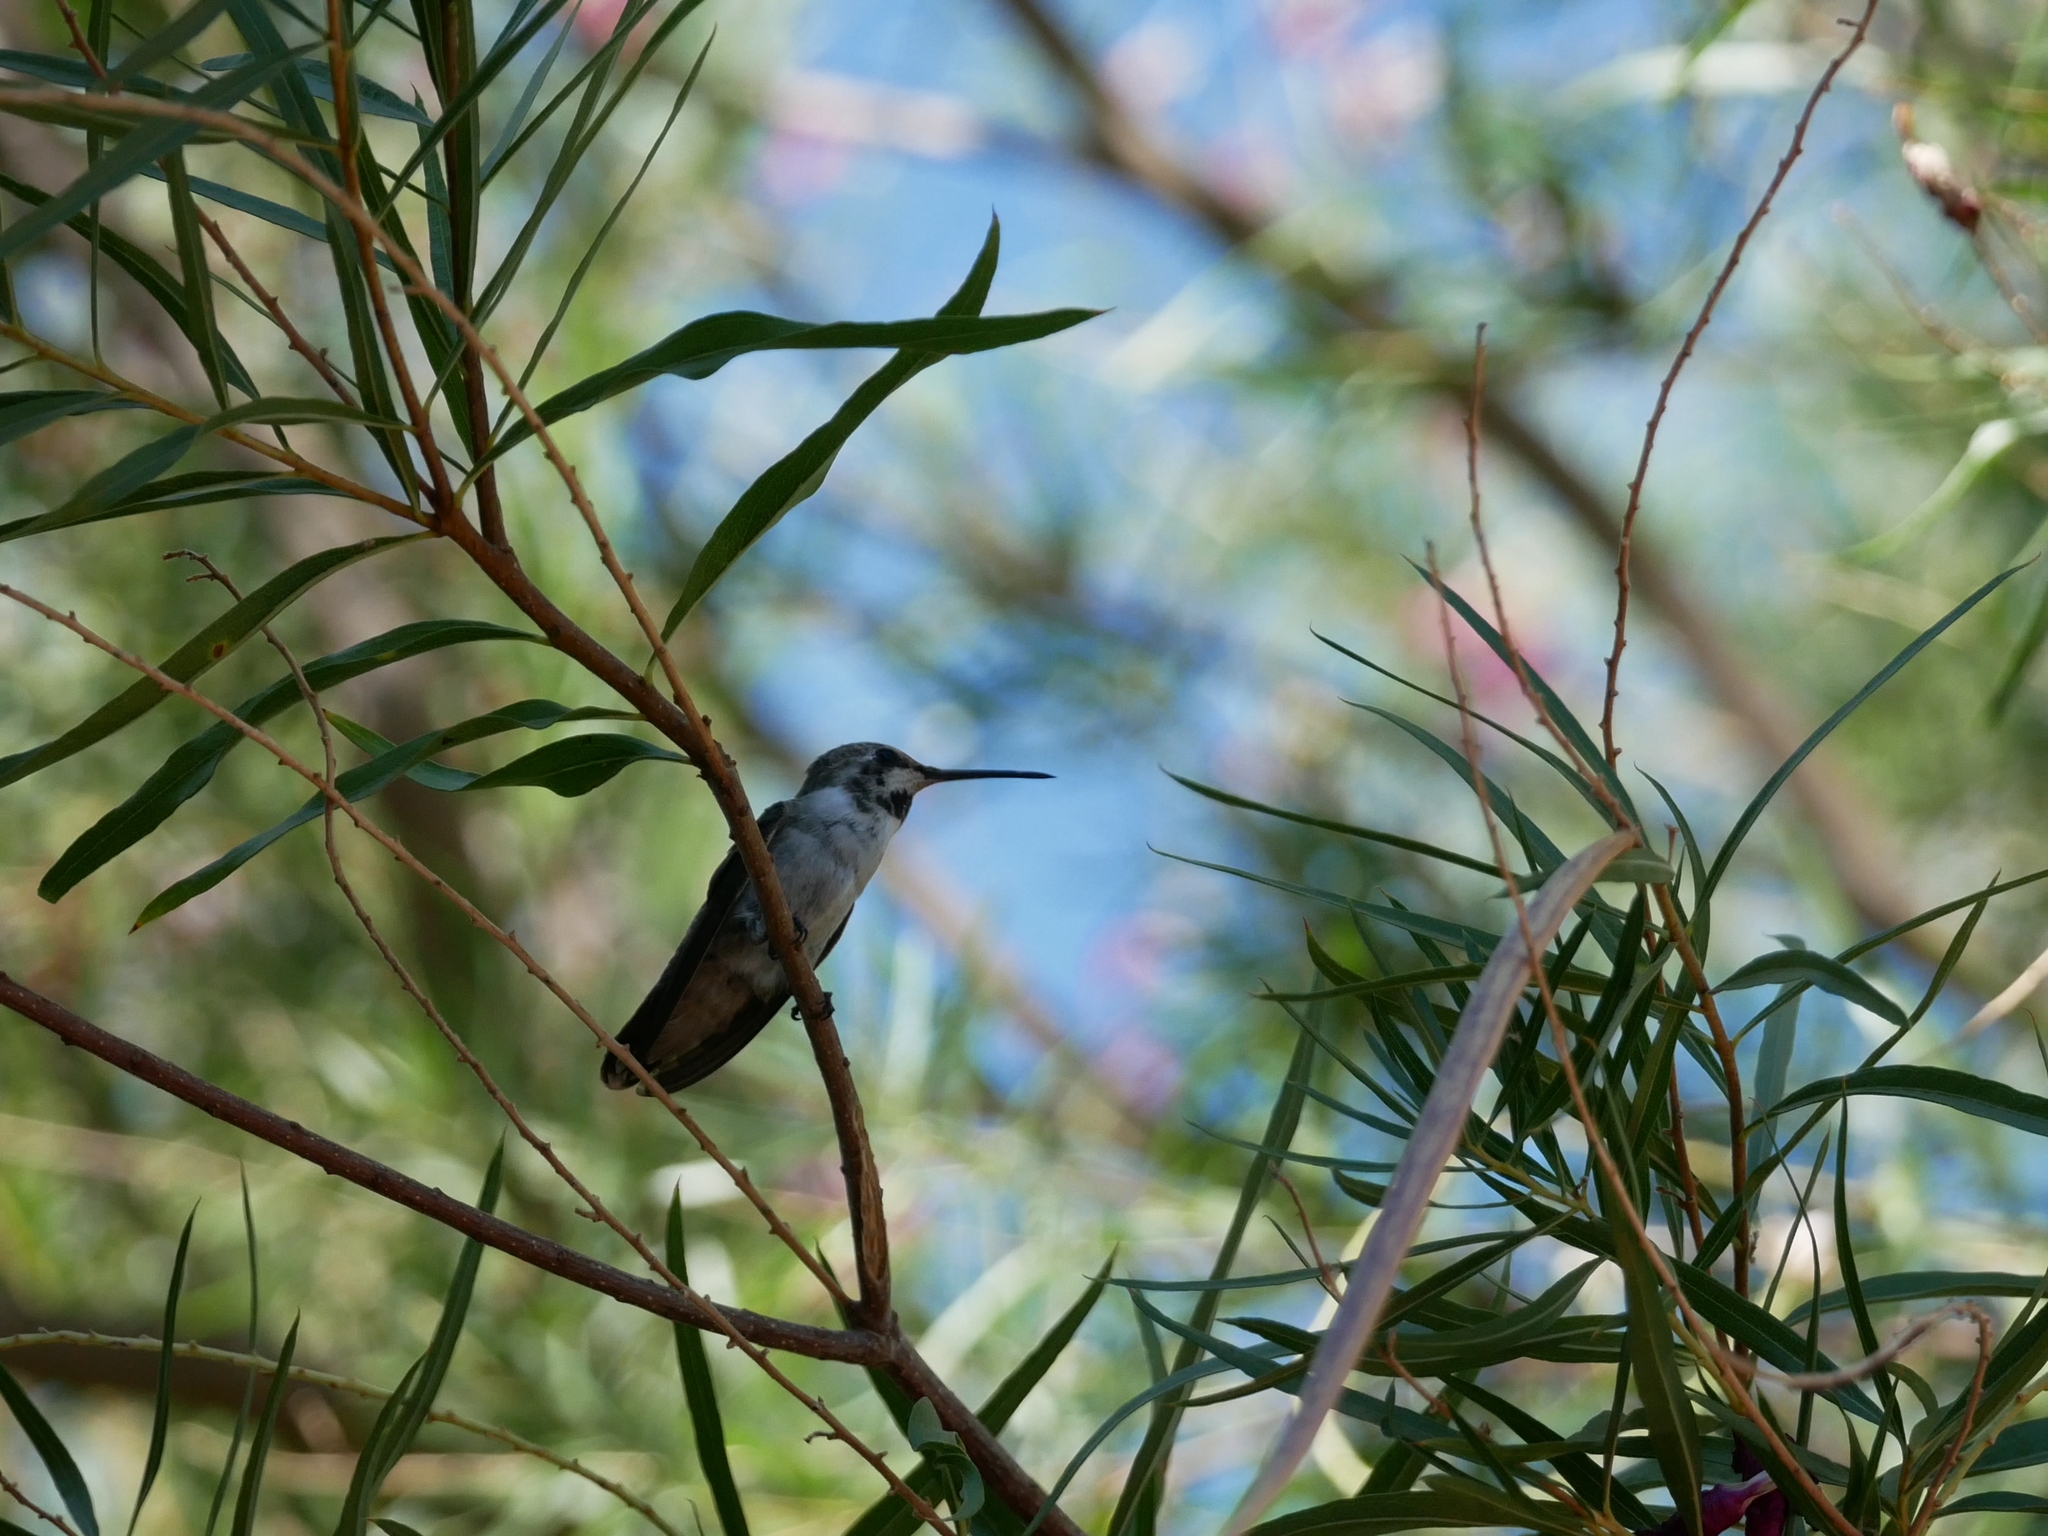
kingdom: Animalia
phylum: Chordata
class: Aves
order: Apodiformes
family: Trochilidae
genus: Calypte
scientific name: Calypte costae
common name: Costa's hummingbird
